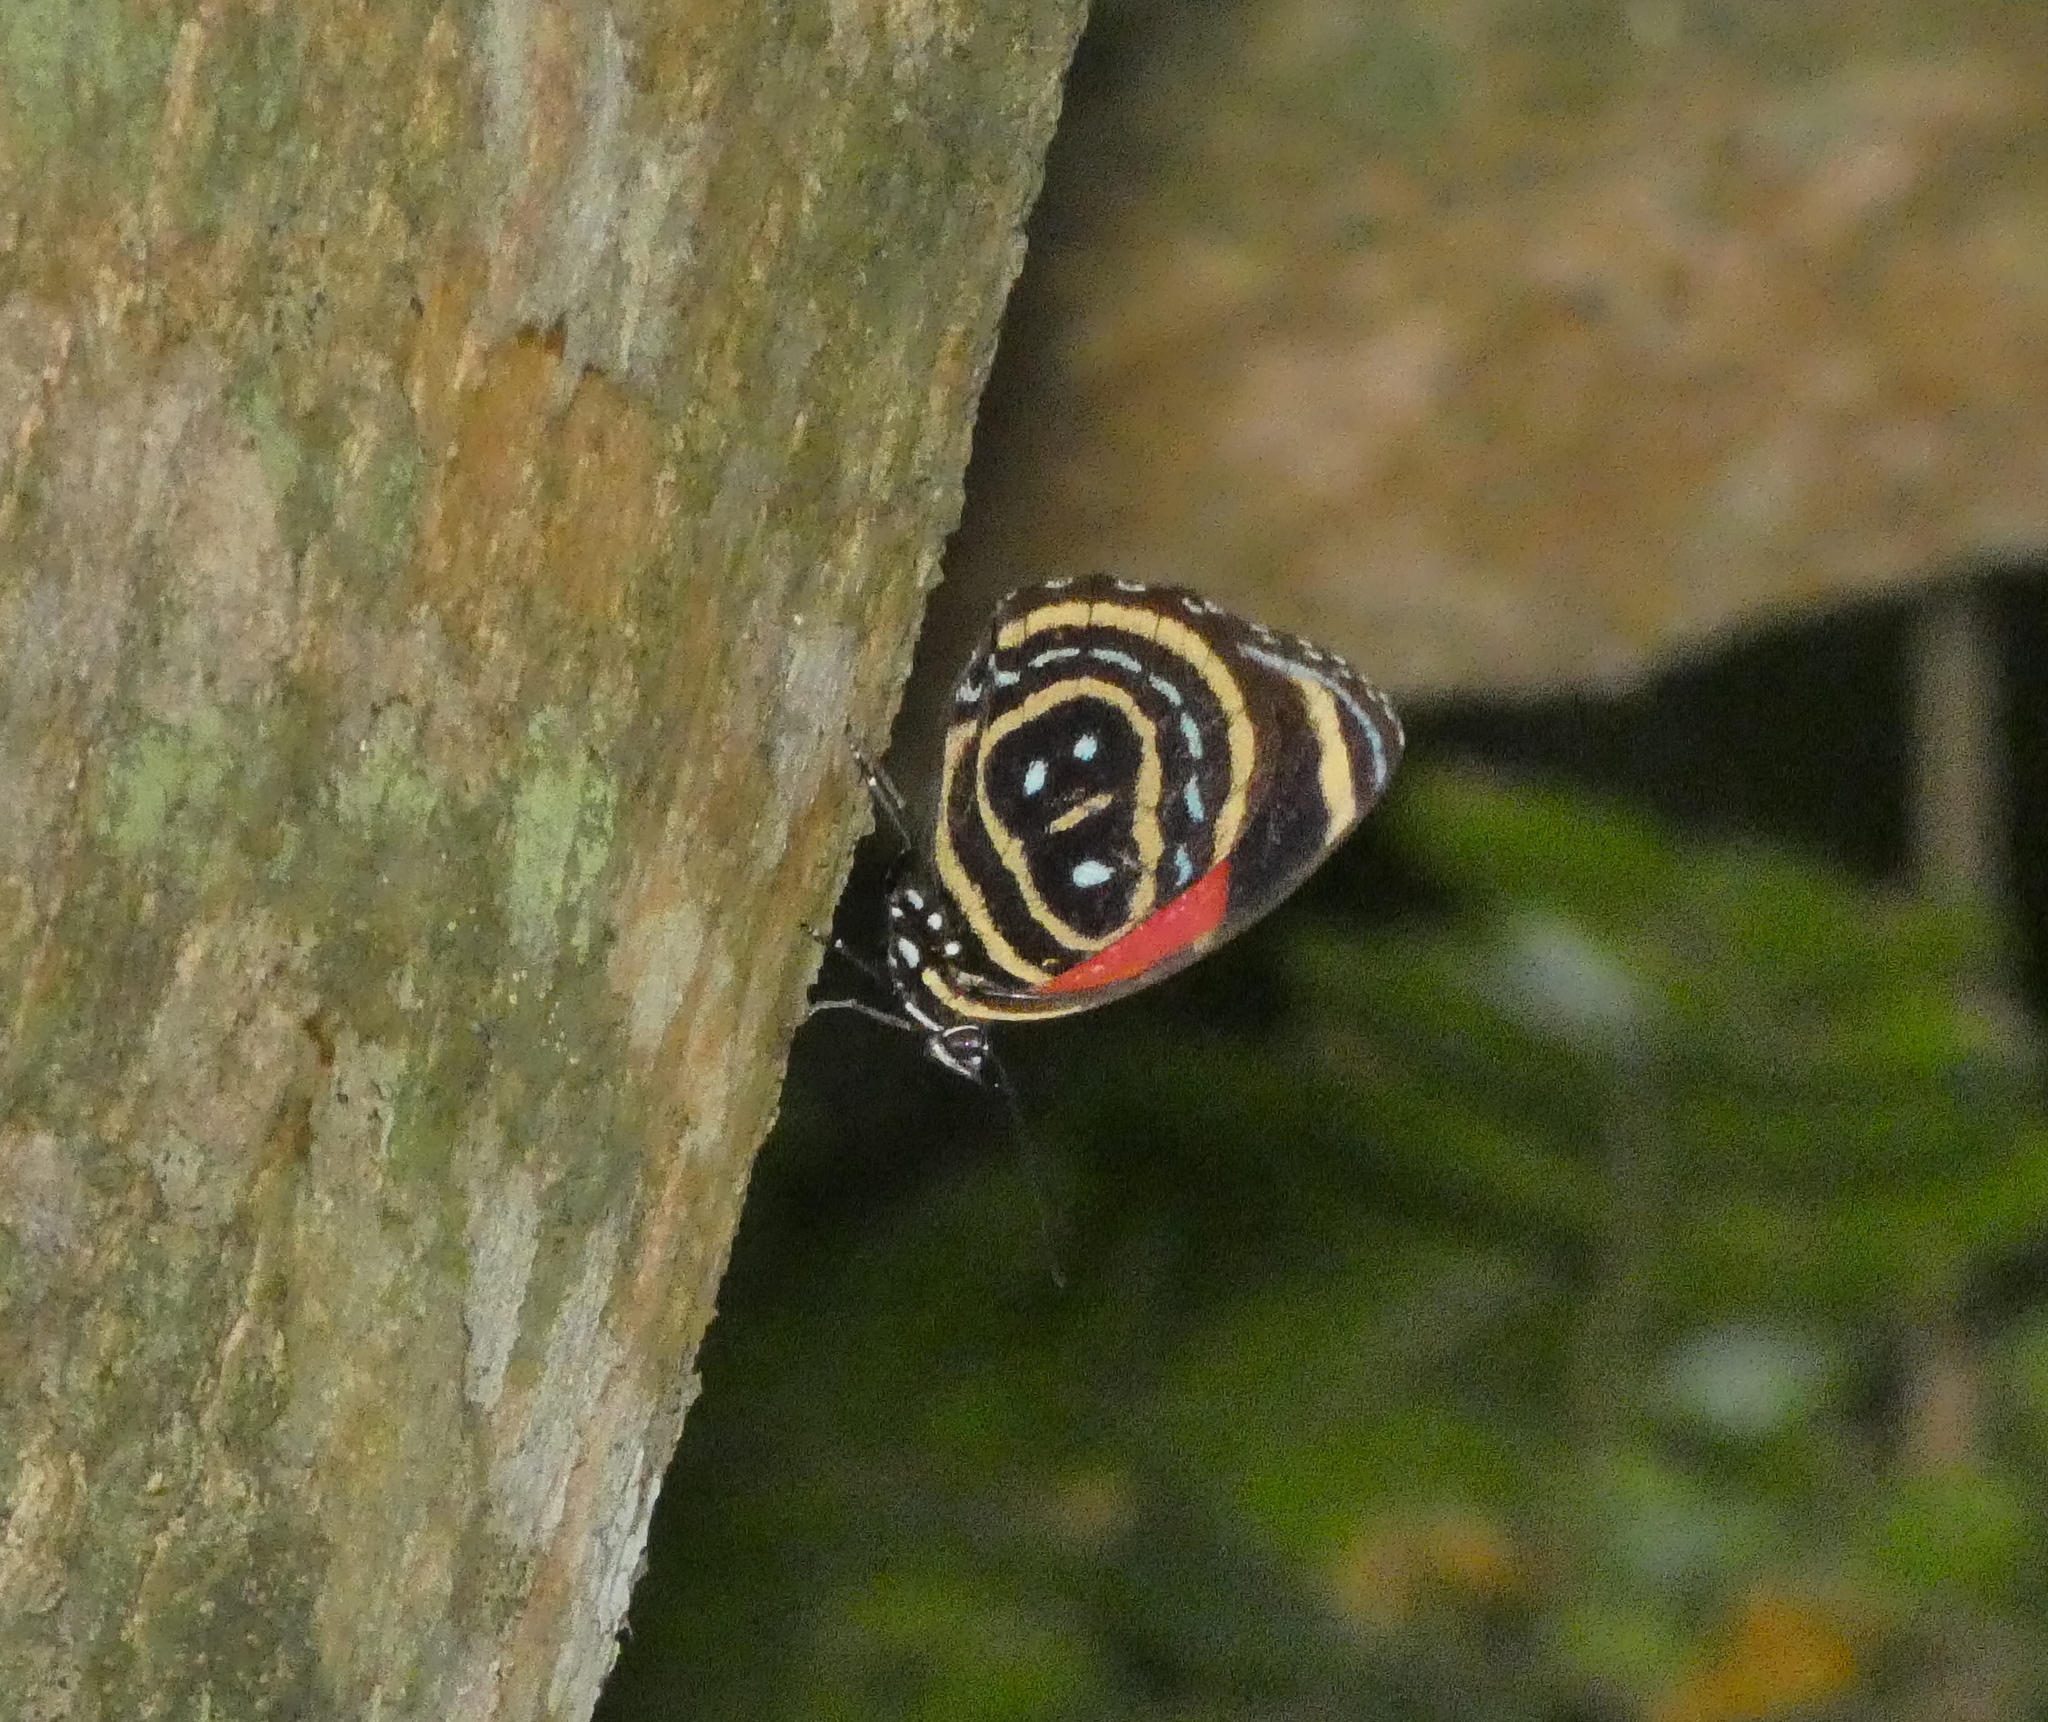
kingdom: Animalia
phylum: Arthropoda
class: Insecta
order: Lepidoptera
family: Nymphalidae
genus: Catagramma
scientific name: Catagramma astarte
